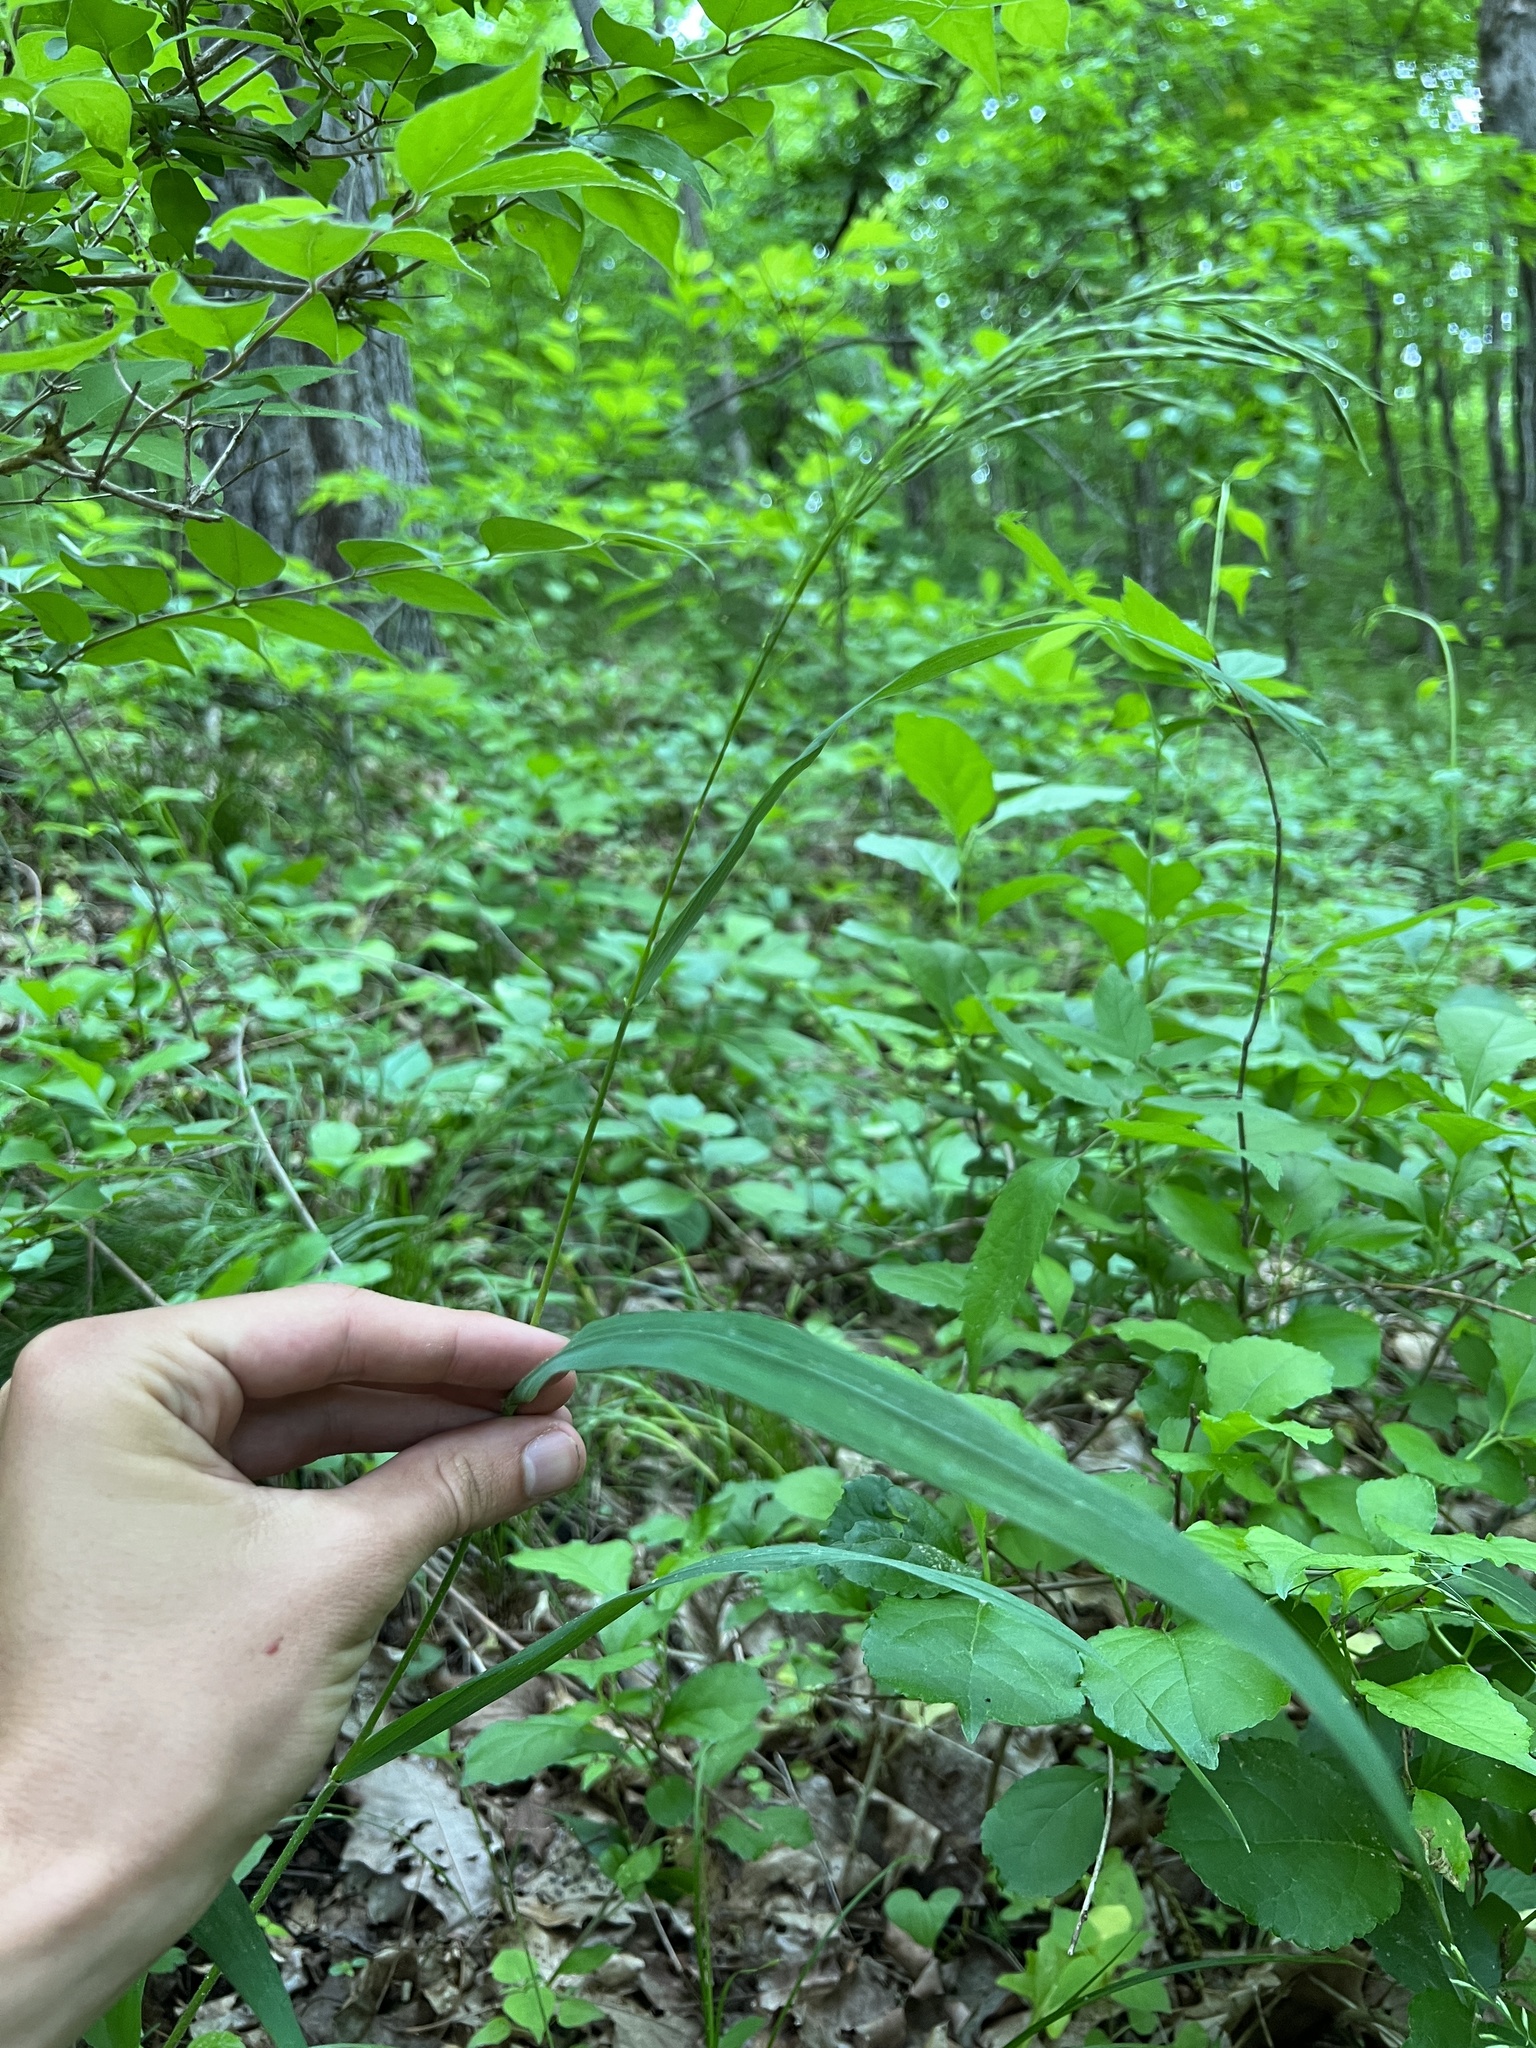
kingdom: Plantae
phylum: Tracheophyta
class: Liliopsida
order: Poales
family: Poaceae
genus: Bromus
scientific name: Bromus pubescens
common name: Hairy wood brome grass
